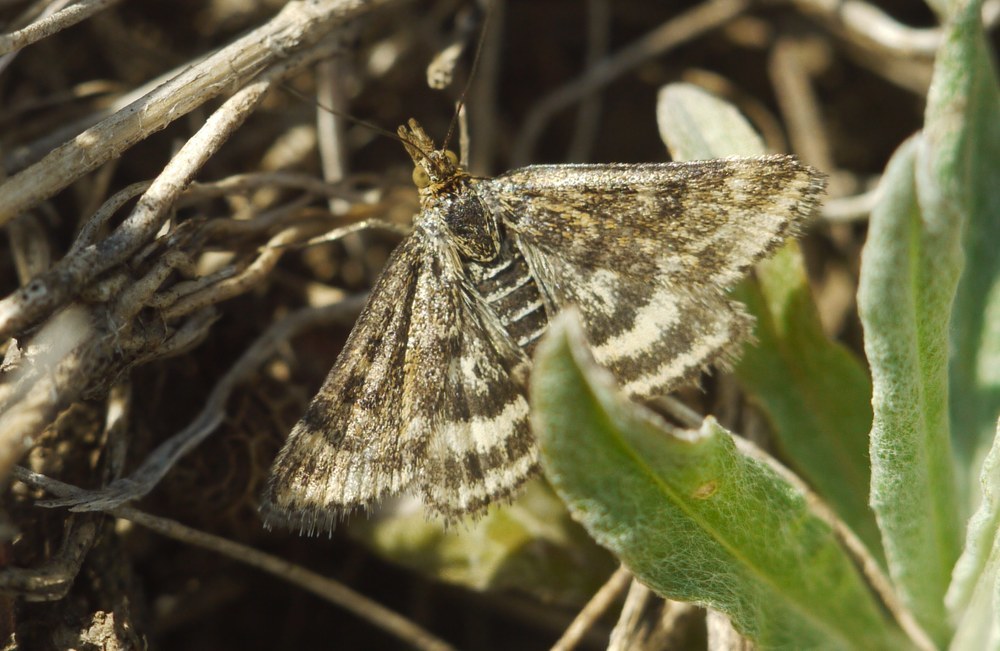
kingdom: Animalia
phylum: Arthropoda
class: Insecta
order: Lepidoptera
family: Crambidae
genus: Pyrausta
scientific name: Pyrausta despicata
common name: Straw-barred pearl
